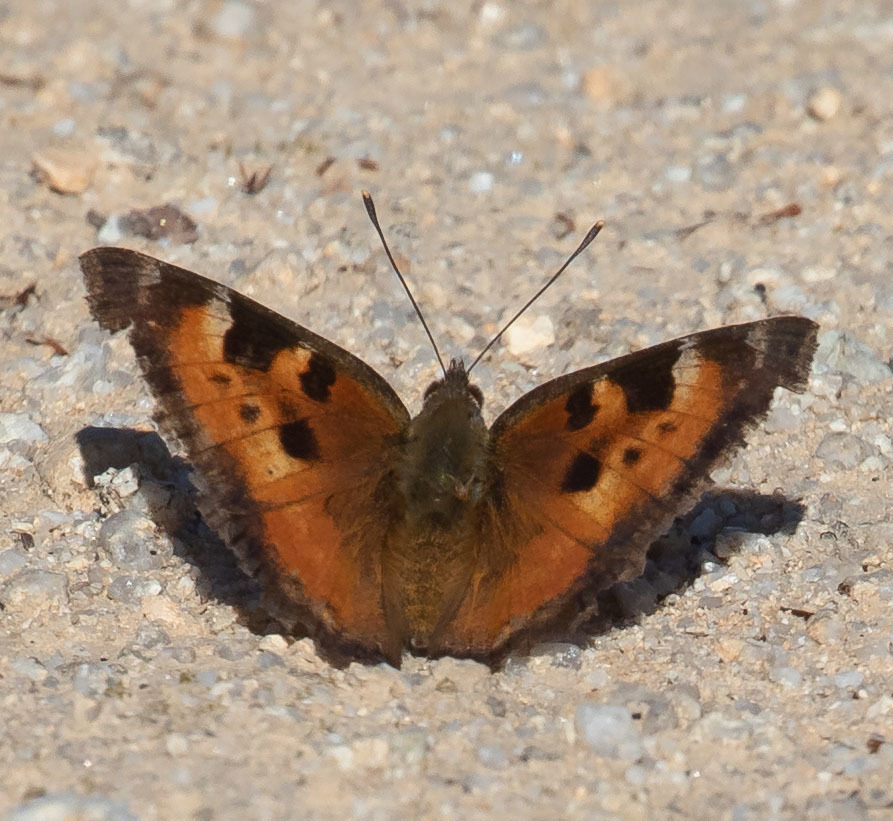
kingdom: Animalia
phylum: Arthropoda
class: Insecta
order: Lepidoptera
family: Nymphalidae
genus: Nymphalis
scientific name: Nymphalis californica
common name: California tortoiseshell
